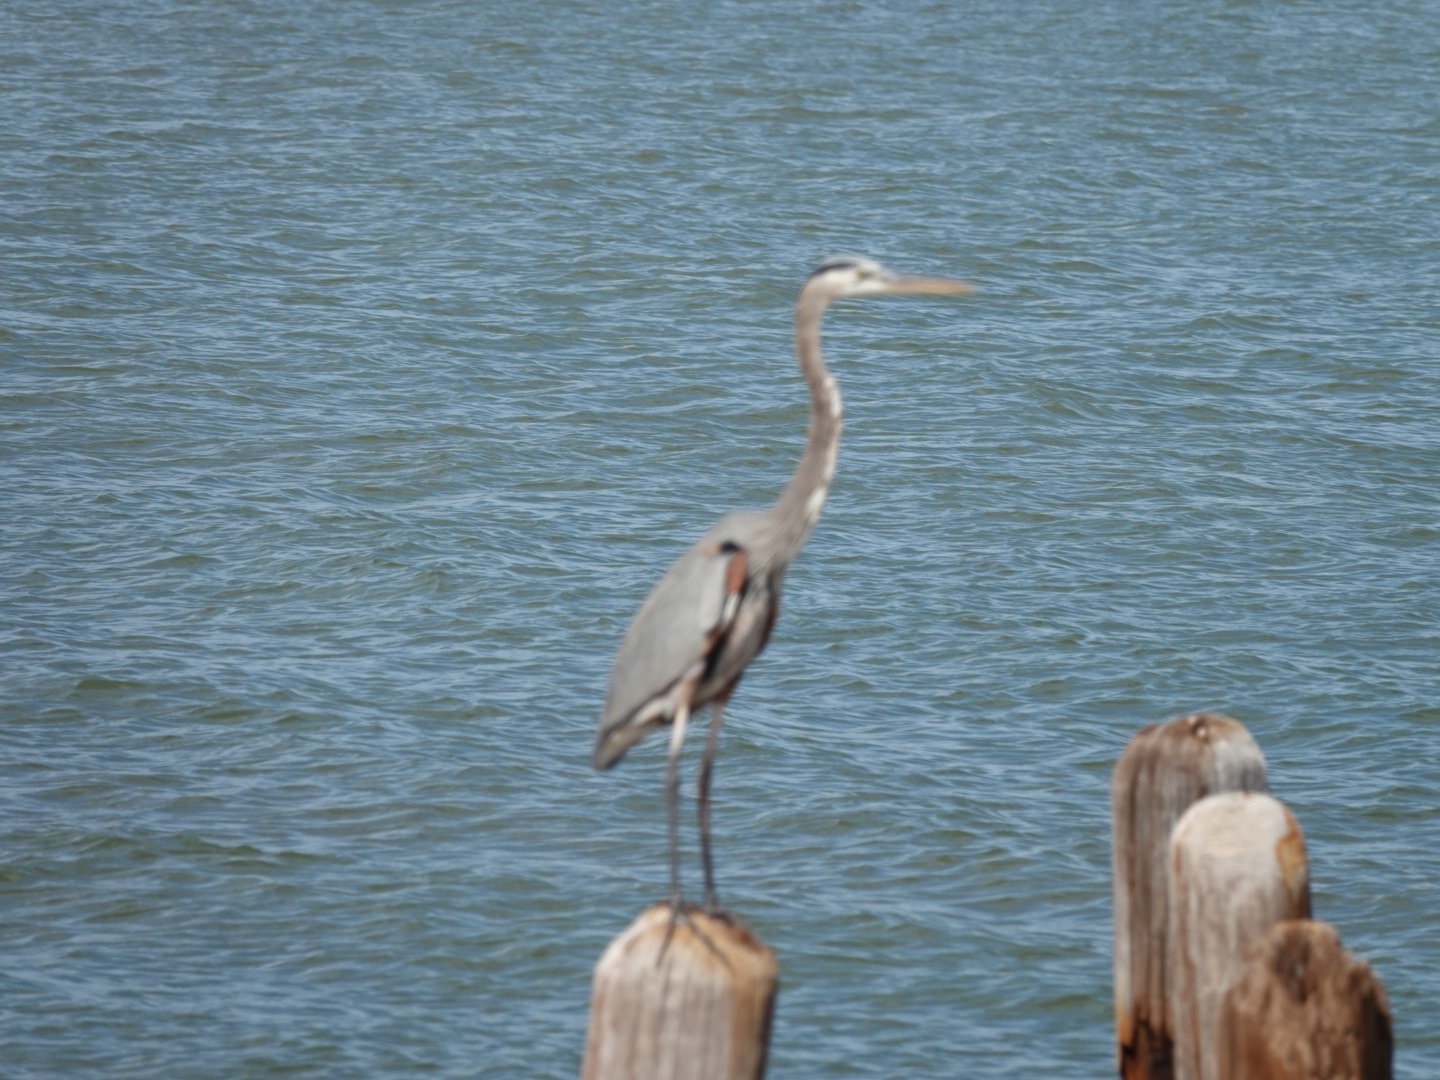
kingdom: Animalia
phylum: Chordata
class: Aves
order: Pelecaniformes
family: Ardeidae
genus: Ardea
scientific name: Ardea herodias
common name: Great blue heron
